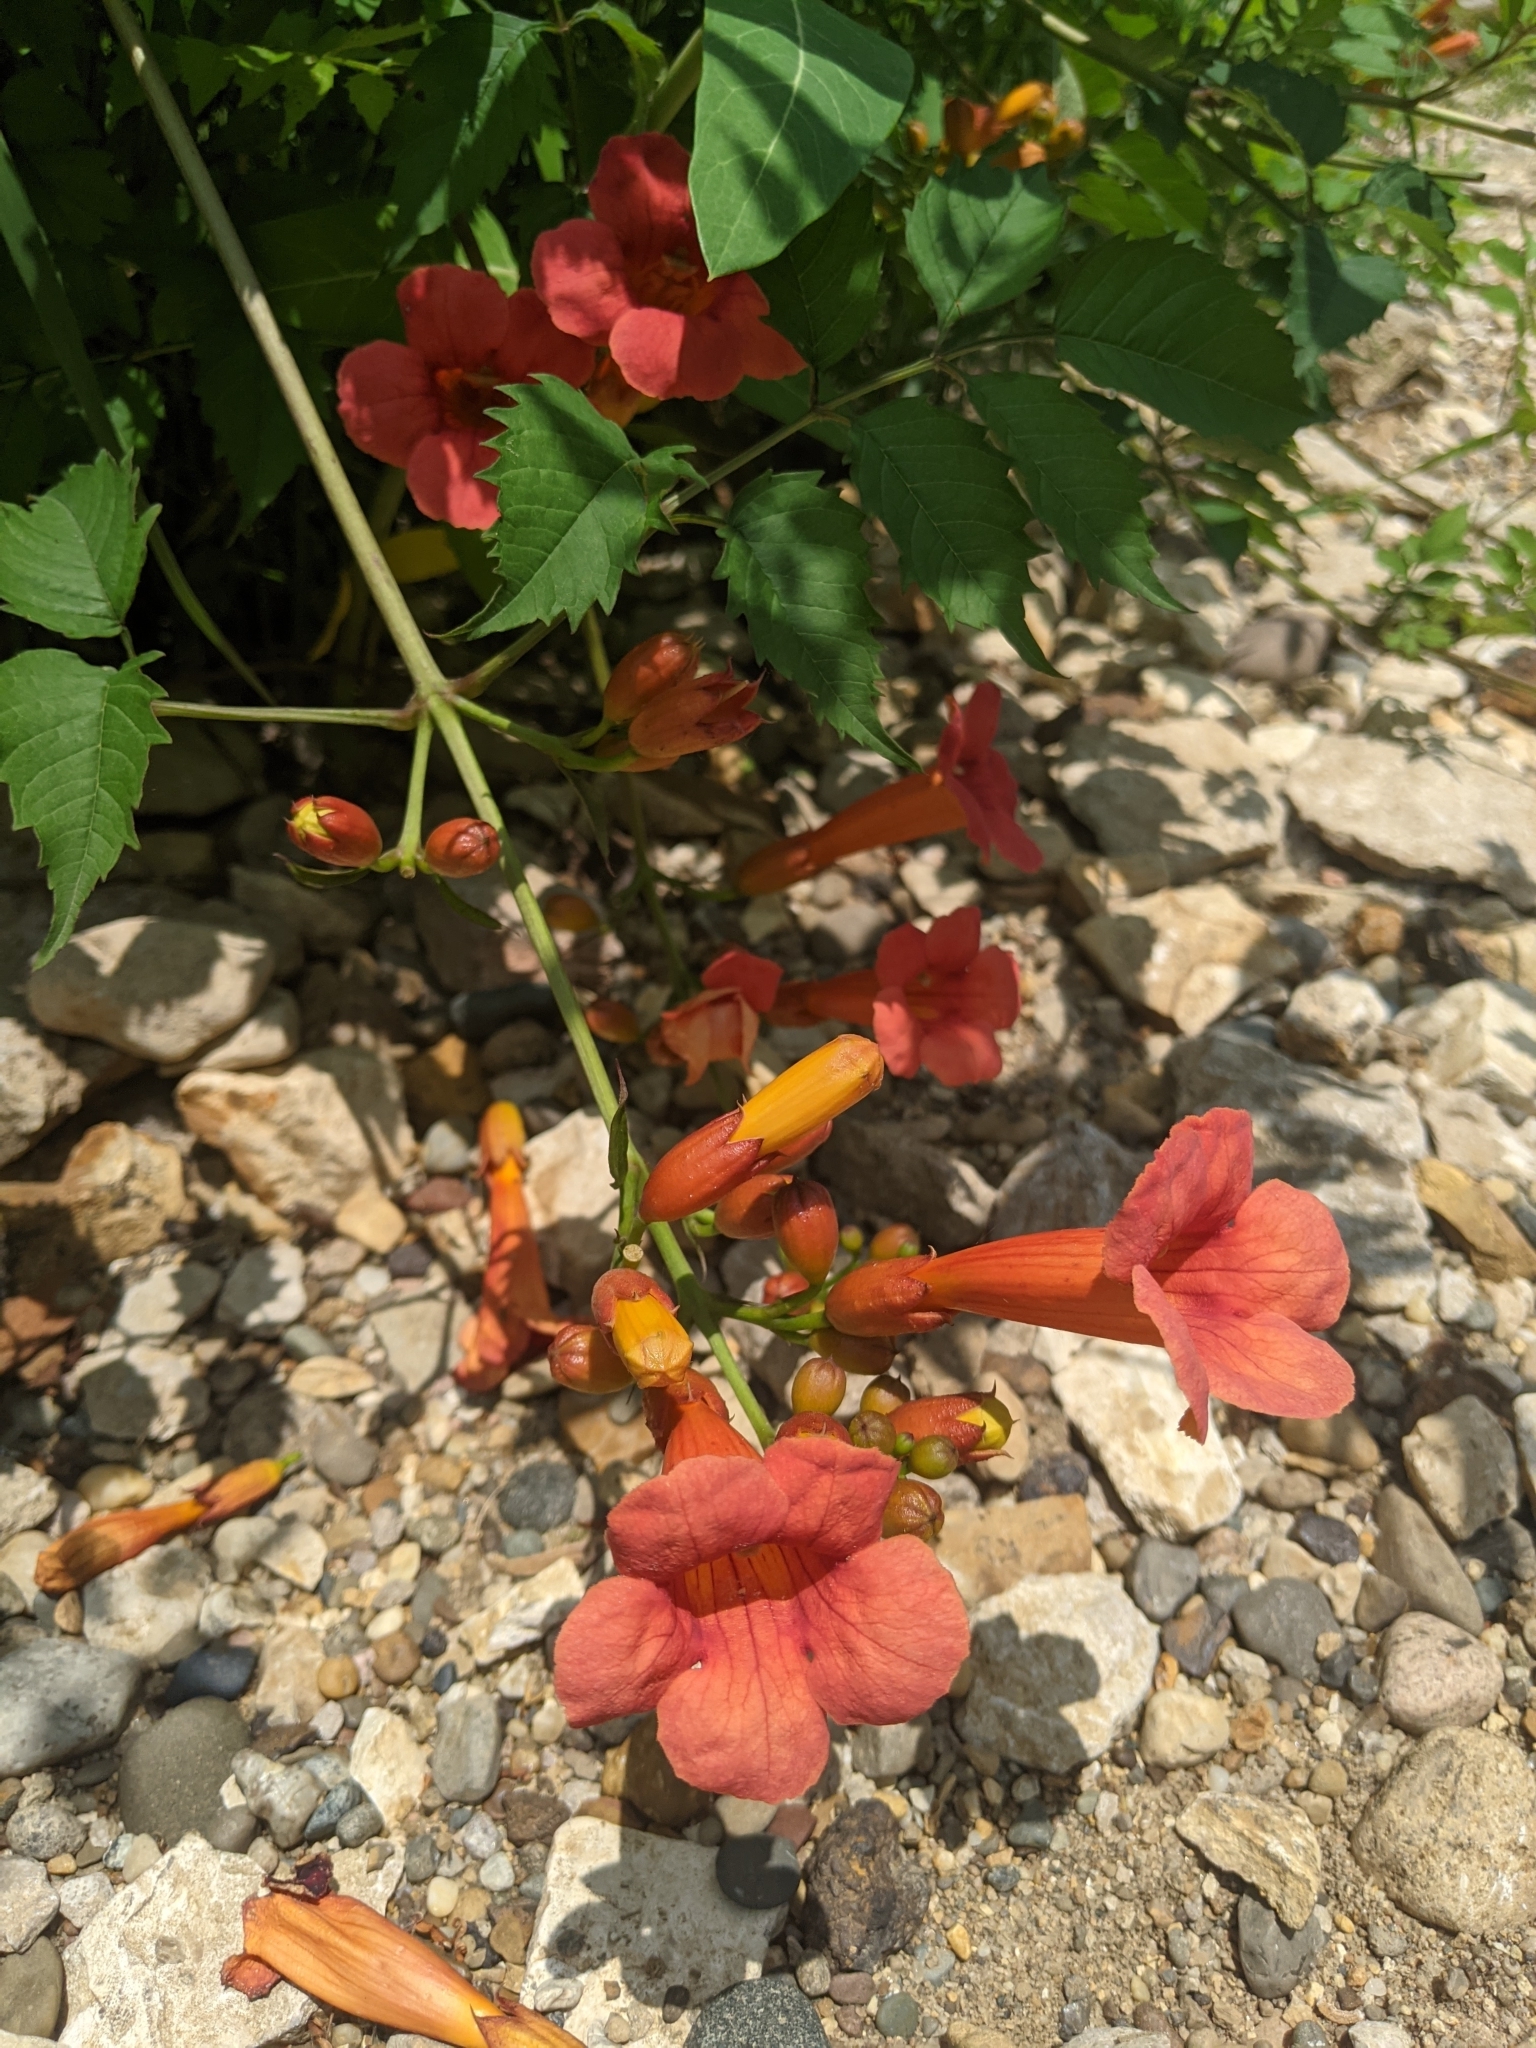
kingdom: Plantae
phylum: Tracheophyta
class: Magnoliopsida
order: Lamiales
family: Bignoniaceae
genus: Campsis
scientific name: Campsis radicans
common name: Trumpet-creeper
